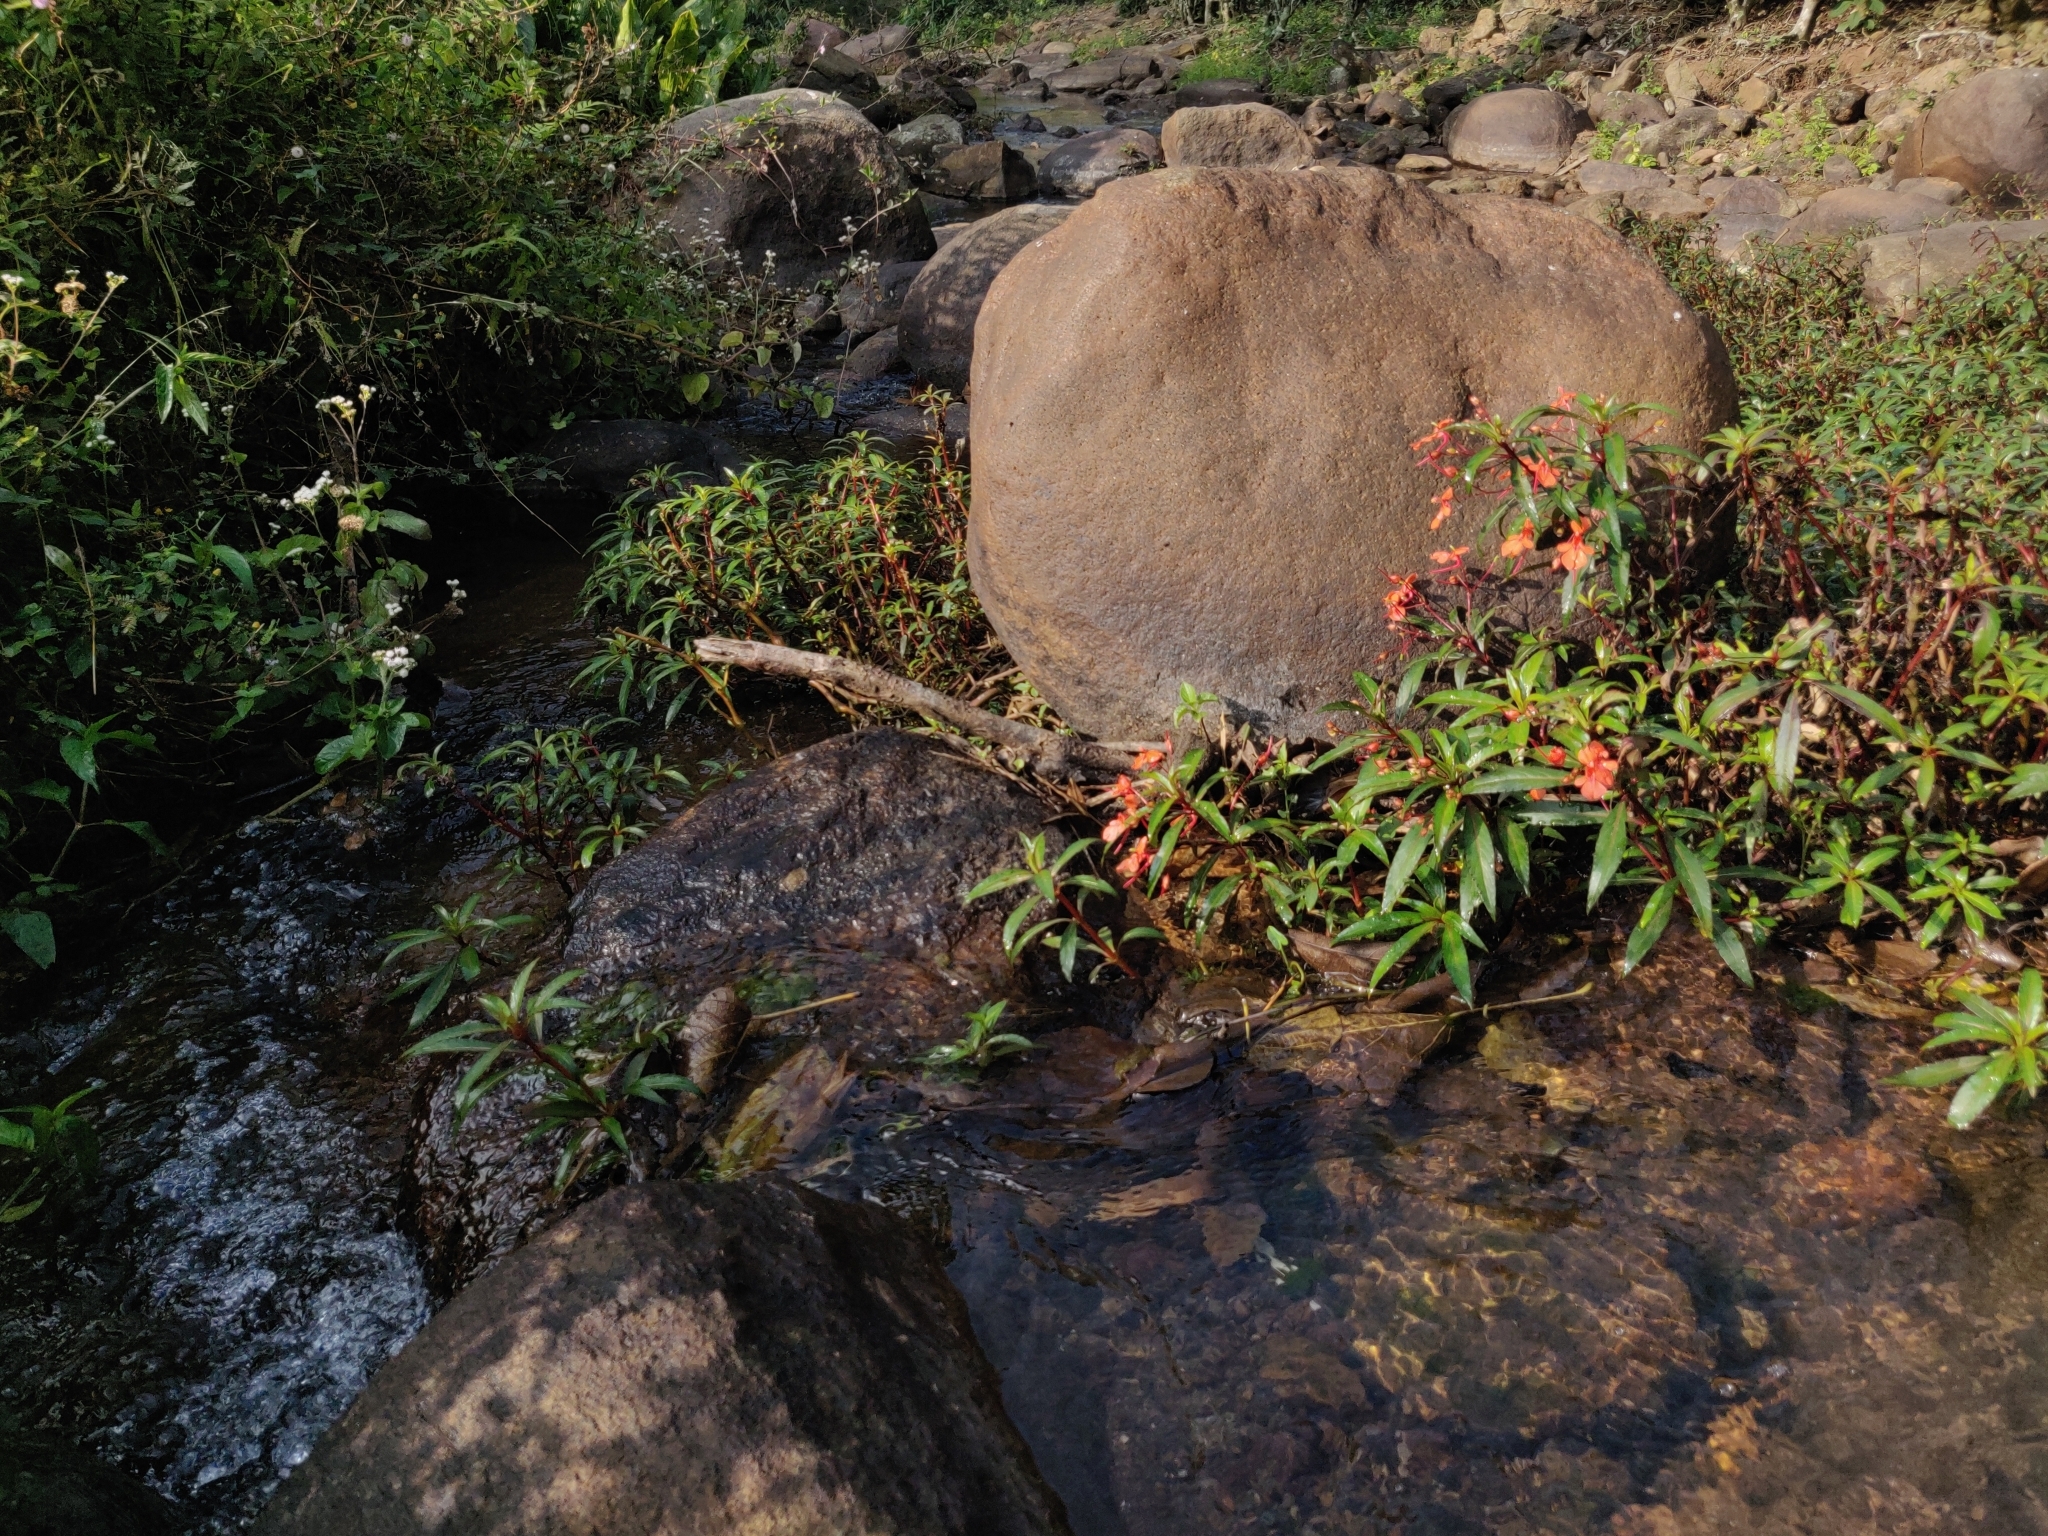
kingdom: Plantae
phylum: Tracheophyta
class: Magnoliopsida
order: Ericales
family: Balsaminaceae
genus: Impatiens
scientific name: Impatiens verticillata
